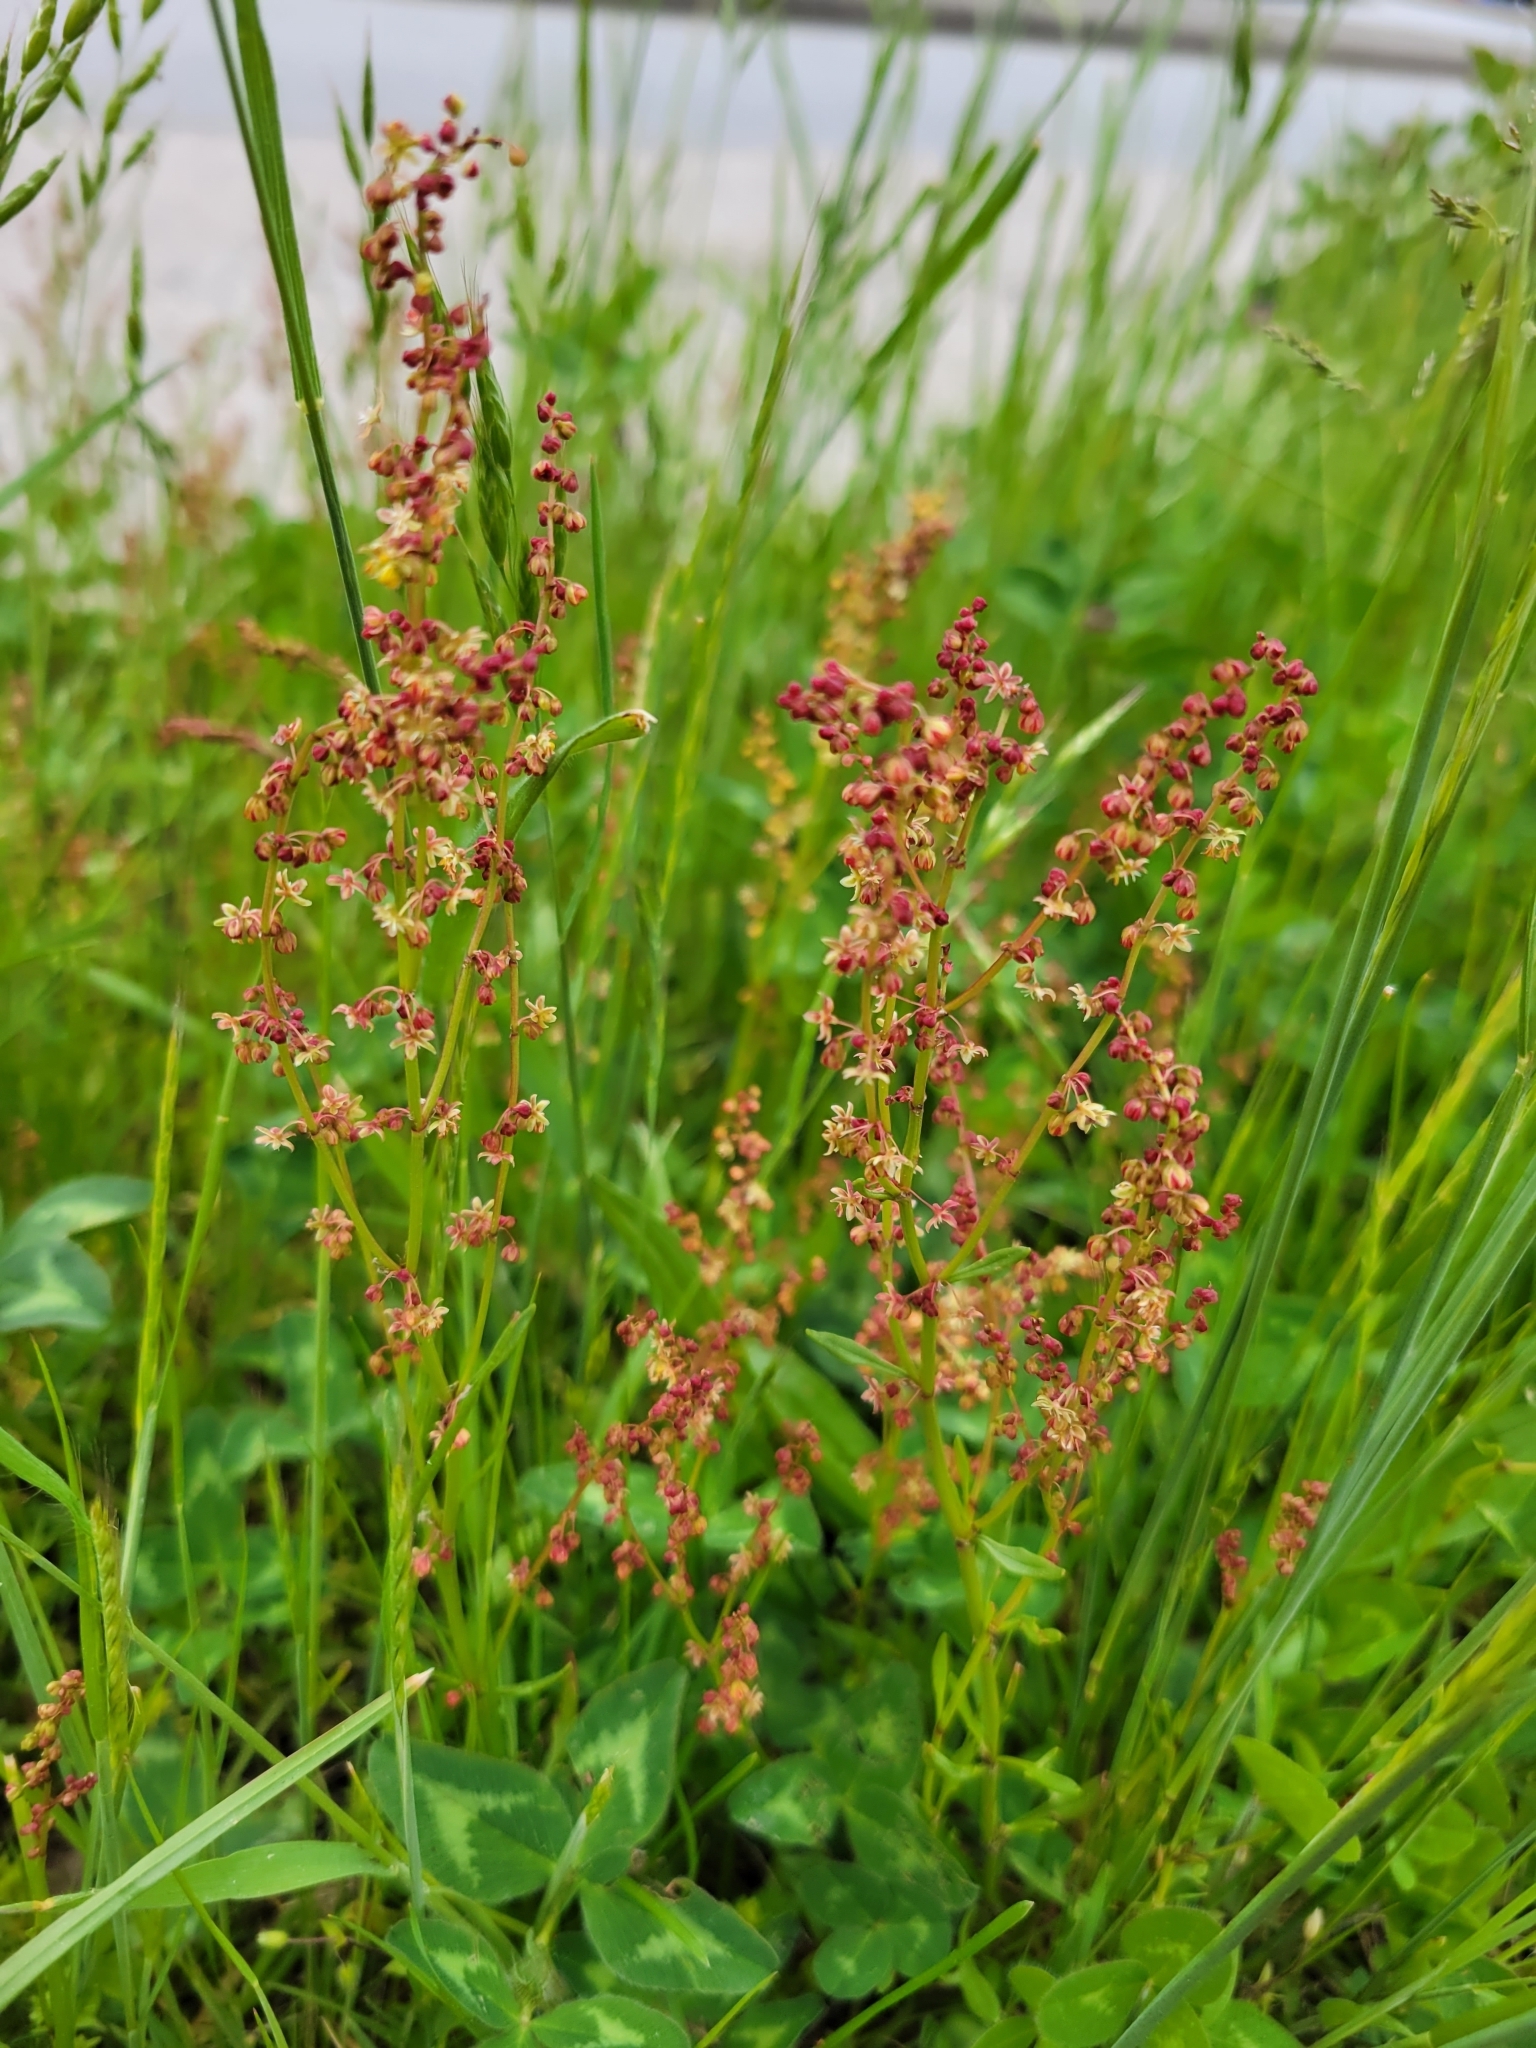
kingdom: Plantae
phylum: Tracheophyta
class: Magnoliopsida
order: Caryophyllales
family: Polygonaceae
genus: Rumex
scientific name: Rumex acetosella
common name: Common sheep sorrel
